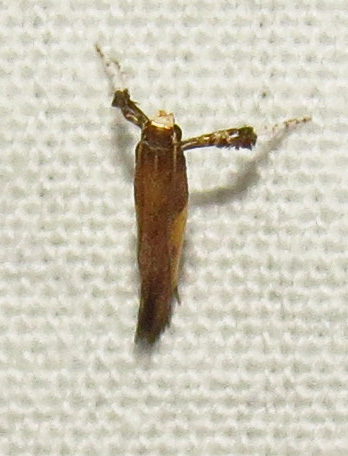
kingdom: Animalia
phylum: Arthropoda
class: Insecta
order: Lepidoptera
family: Gracillariidae
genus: Caloptilia
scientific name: Caloptilia azaleella
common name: Azalea leafminer
